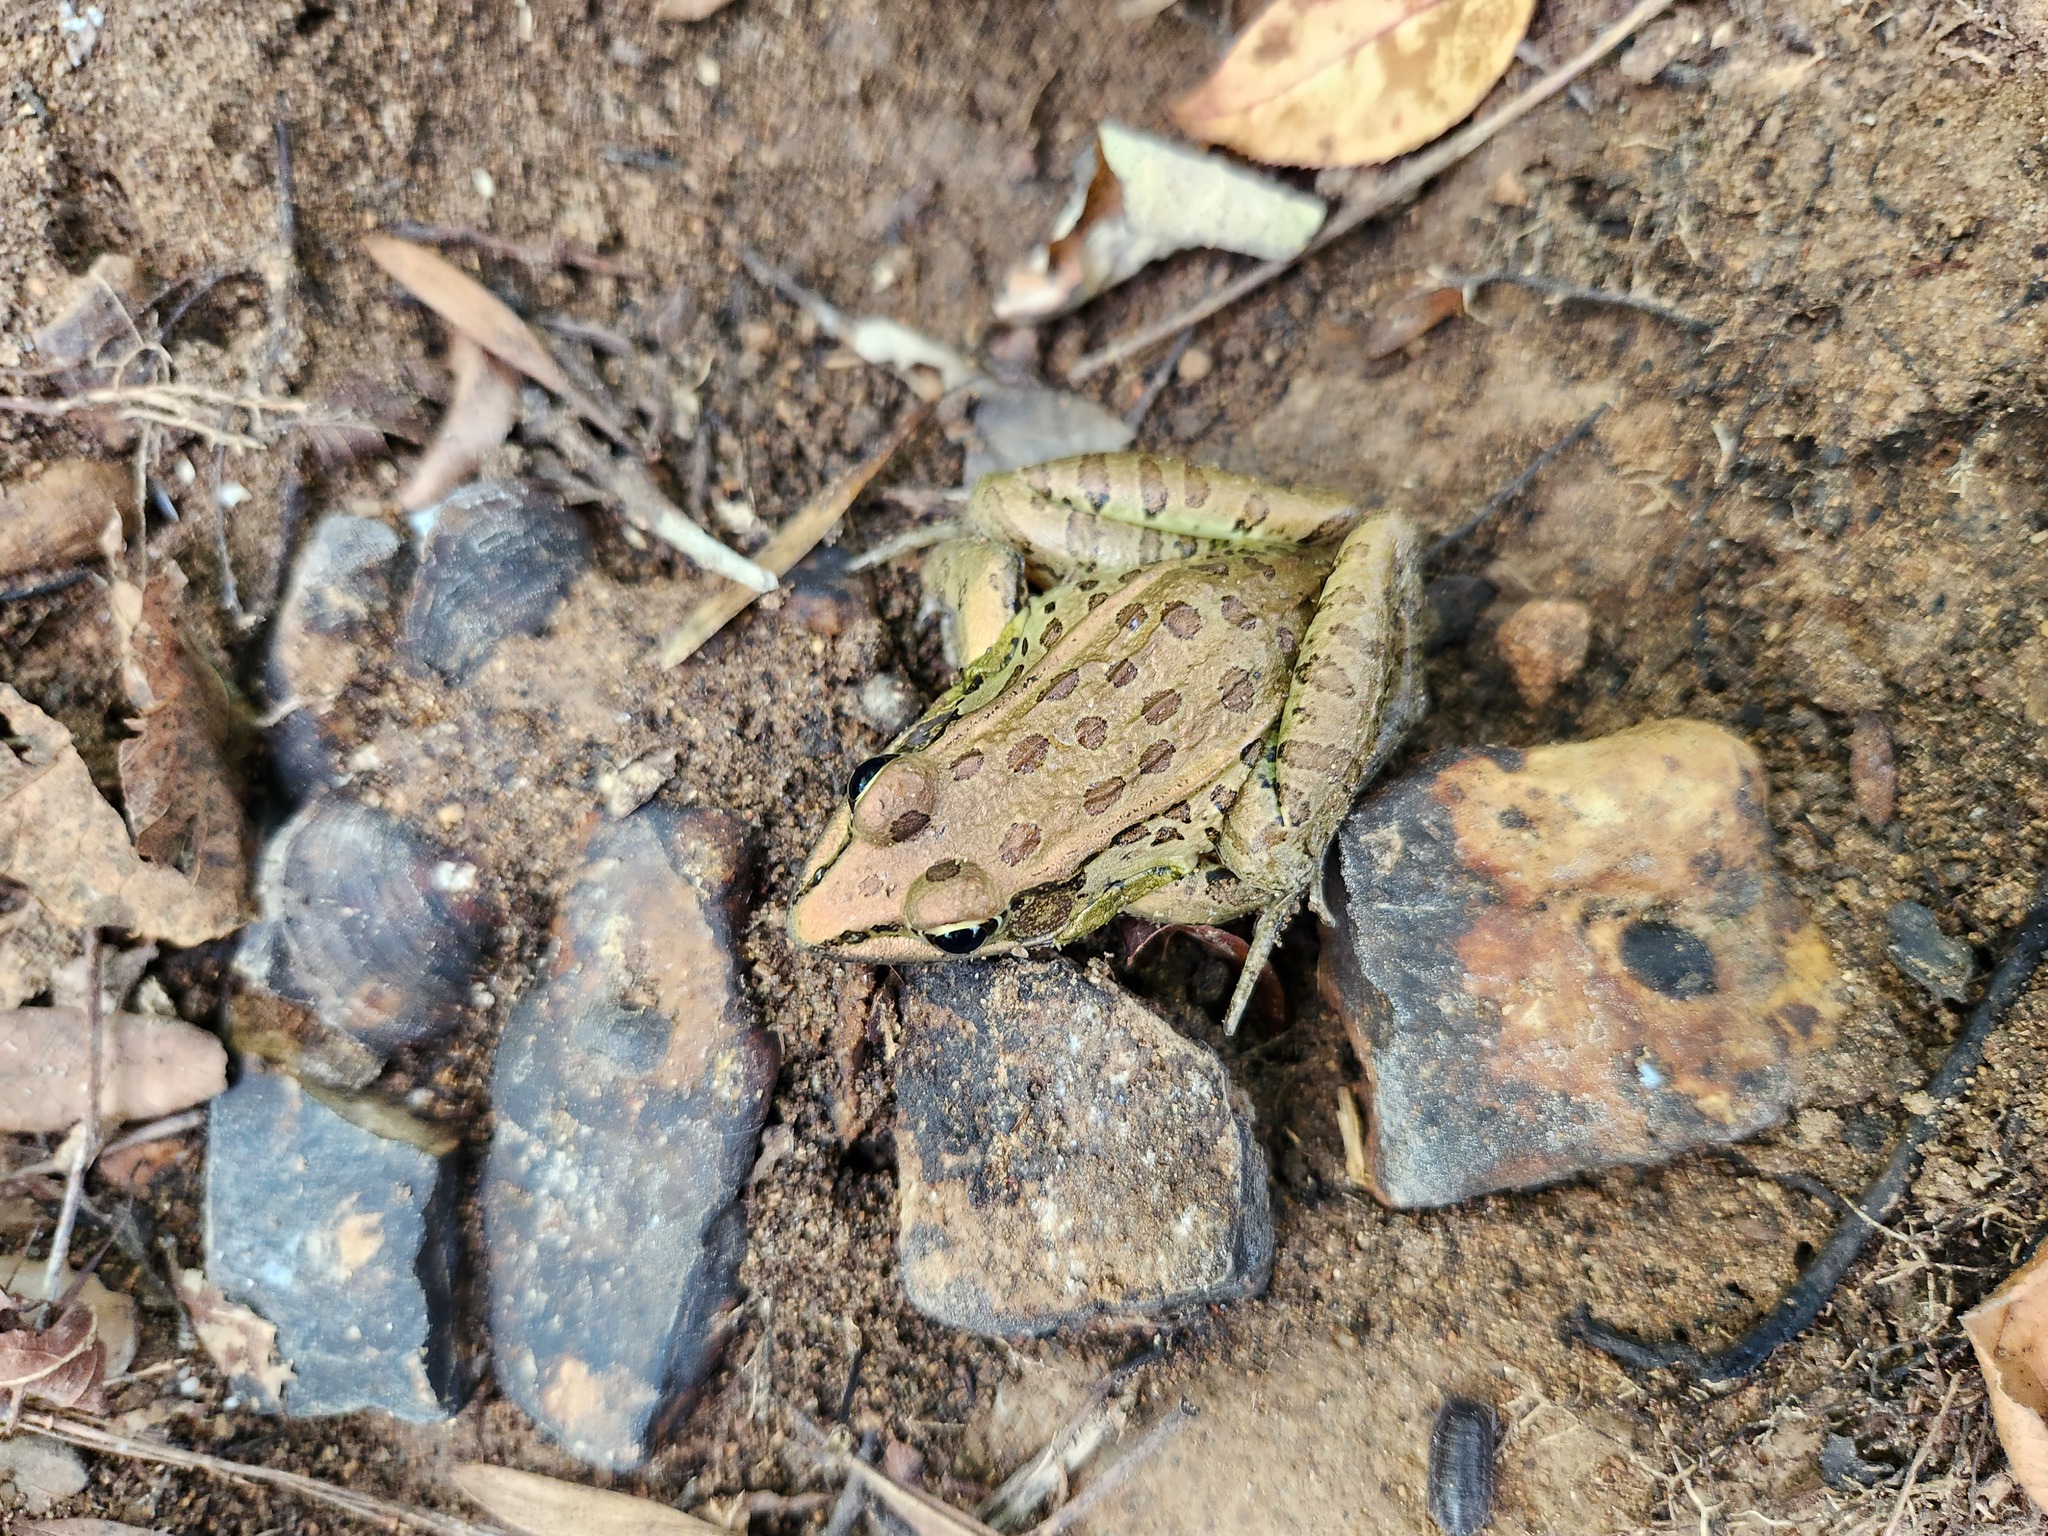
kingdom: Animalia
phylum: Chordata
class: Amphibia
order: Anura
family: Ranidae
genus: Lithobates
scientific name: Lithobates sphenocephalus
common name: Southern leopard frog
